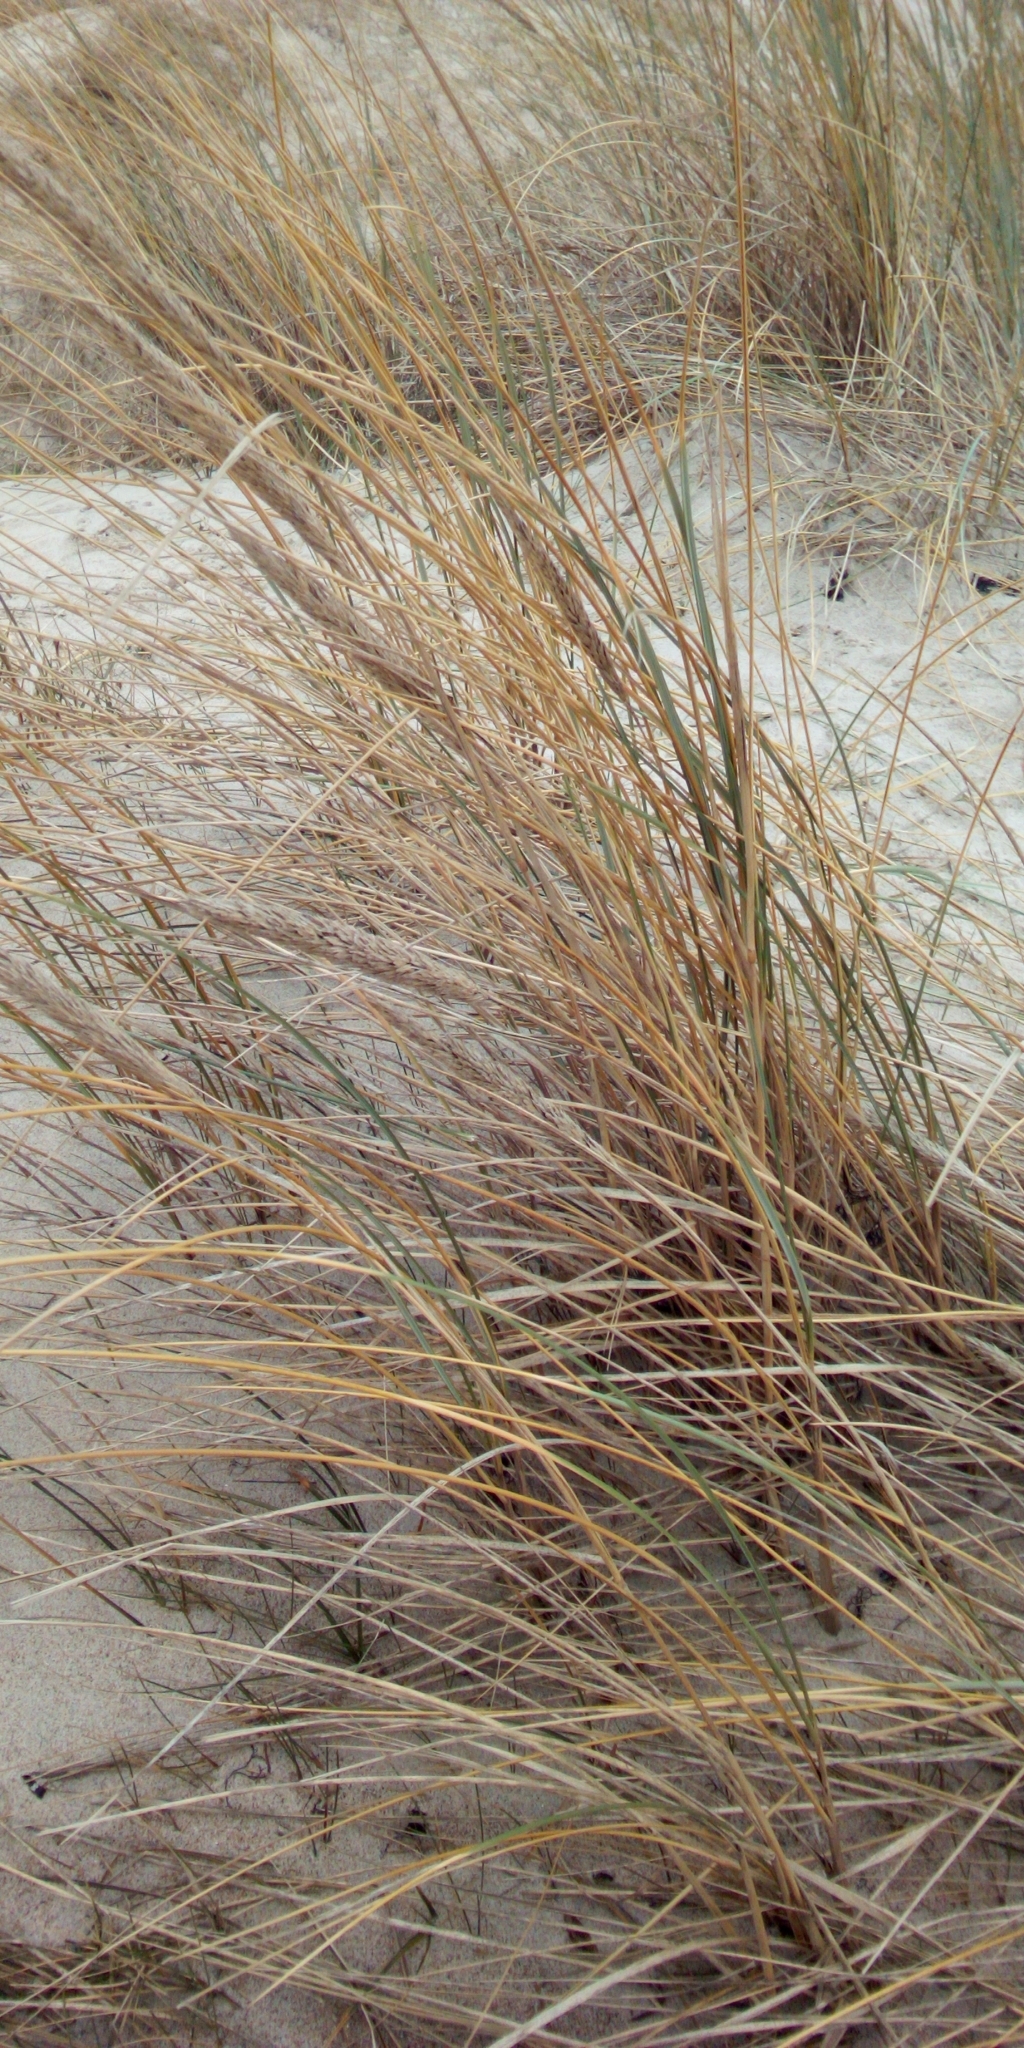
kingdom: Plantae
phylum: Tracheophyta
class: Liliopsida
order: Poales
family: Poaceae
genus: Calamagrostis
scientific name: Calamagrostis arenaria
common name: European beachgrass
